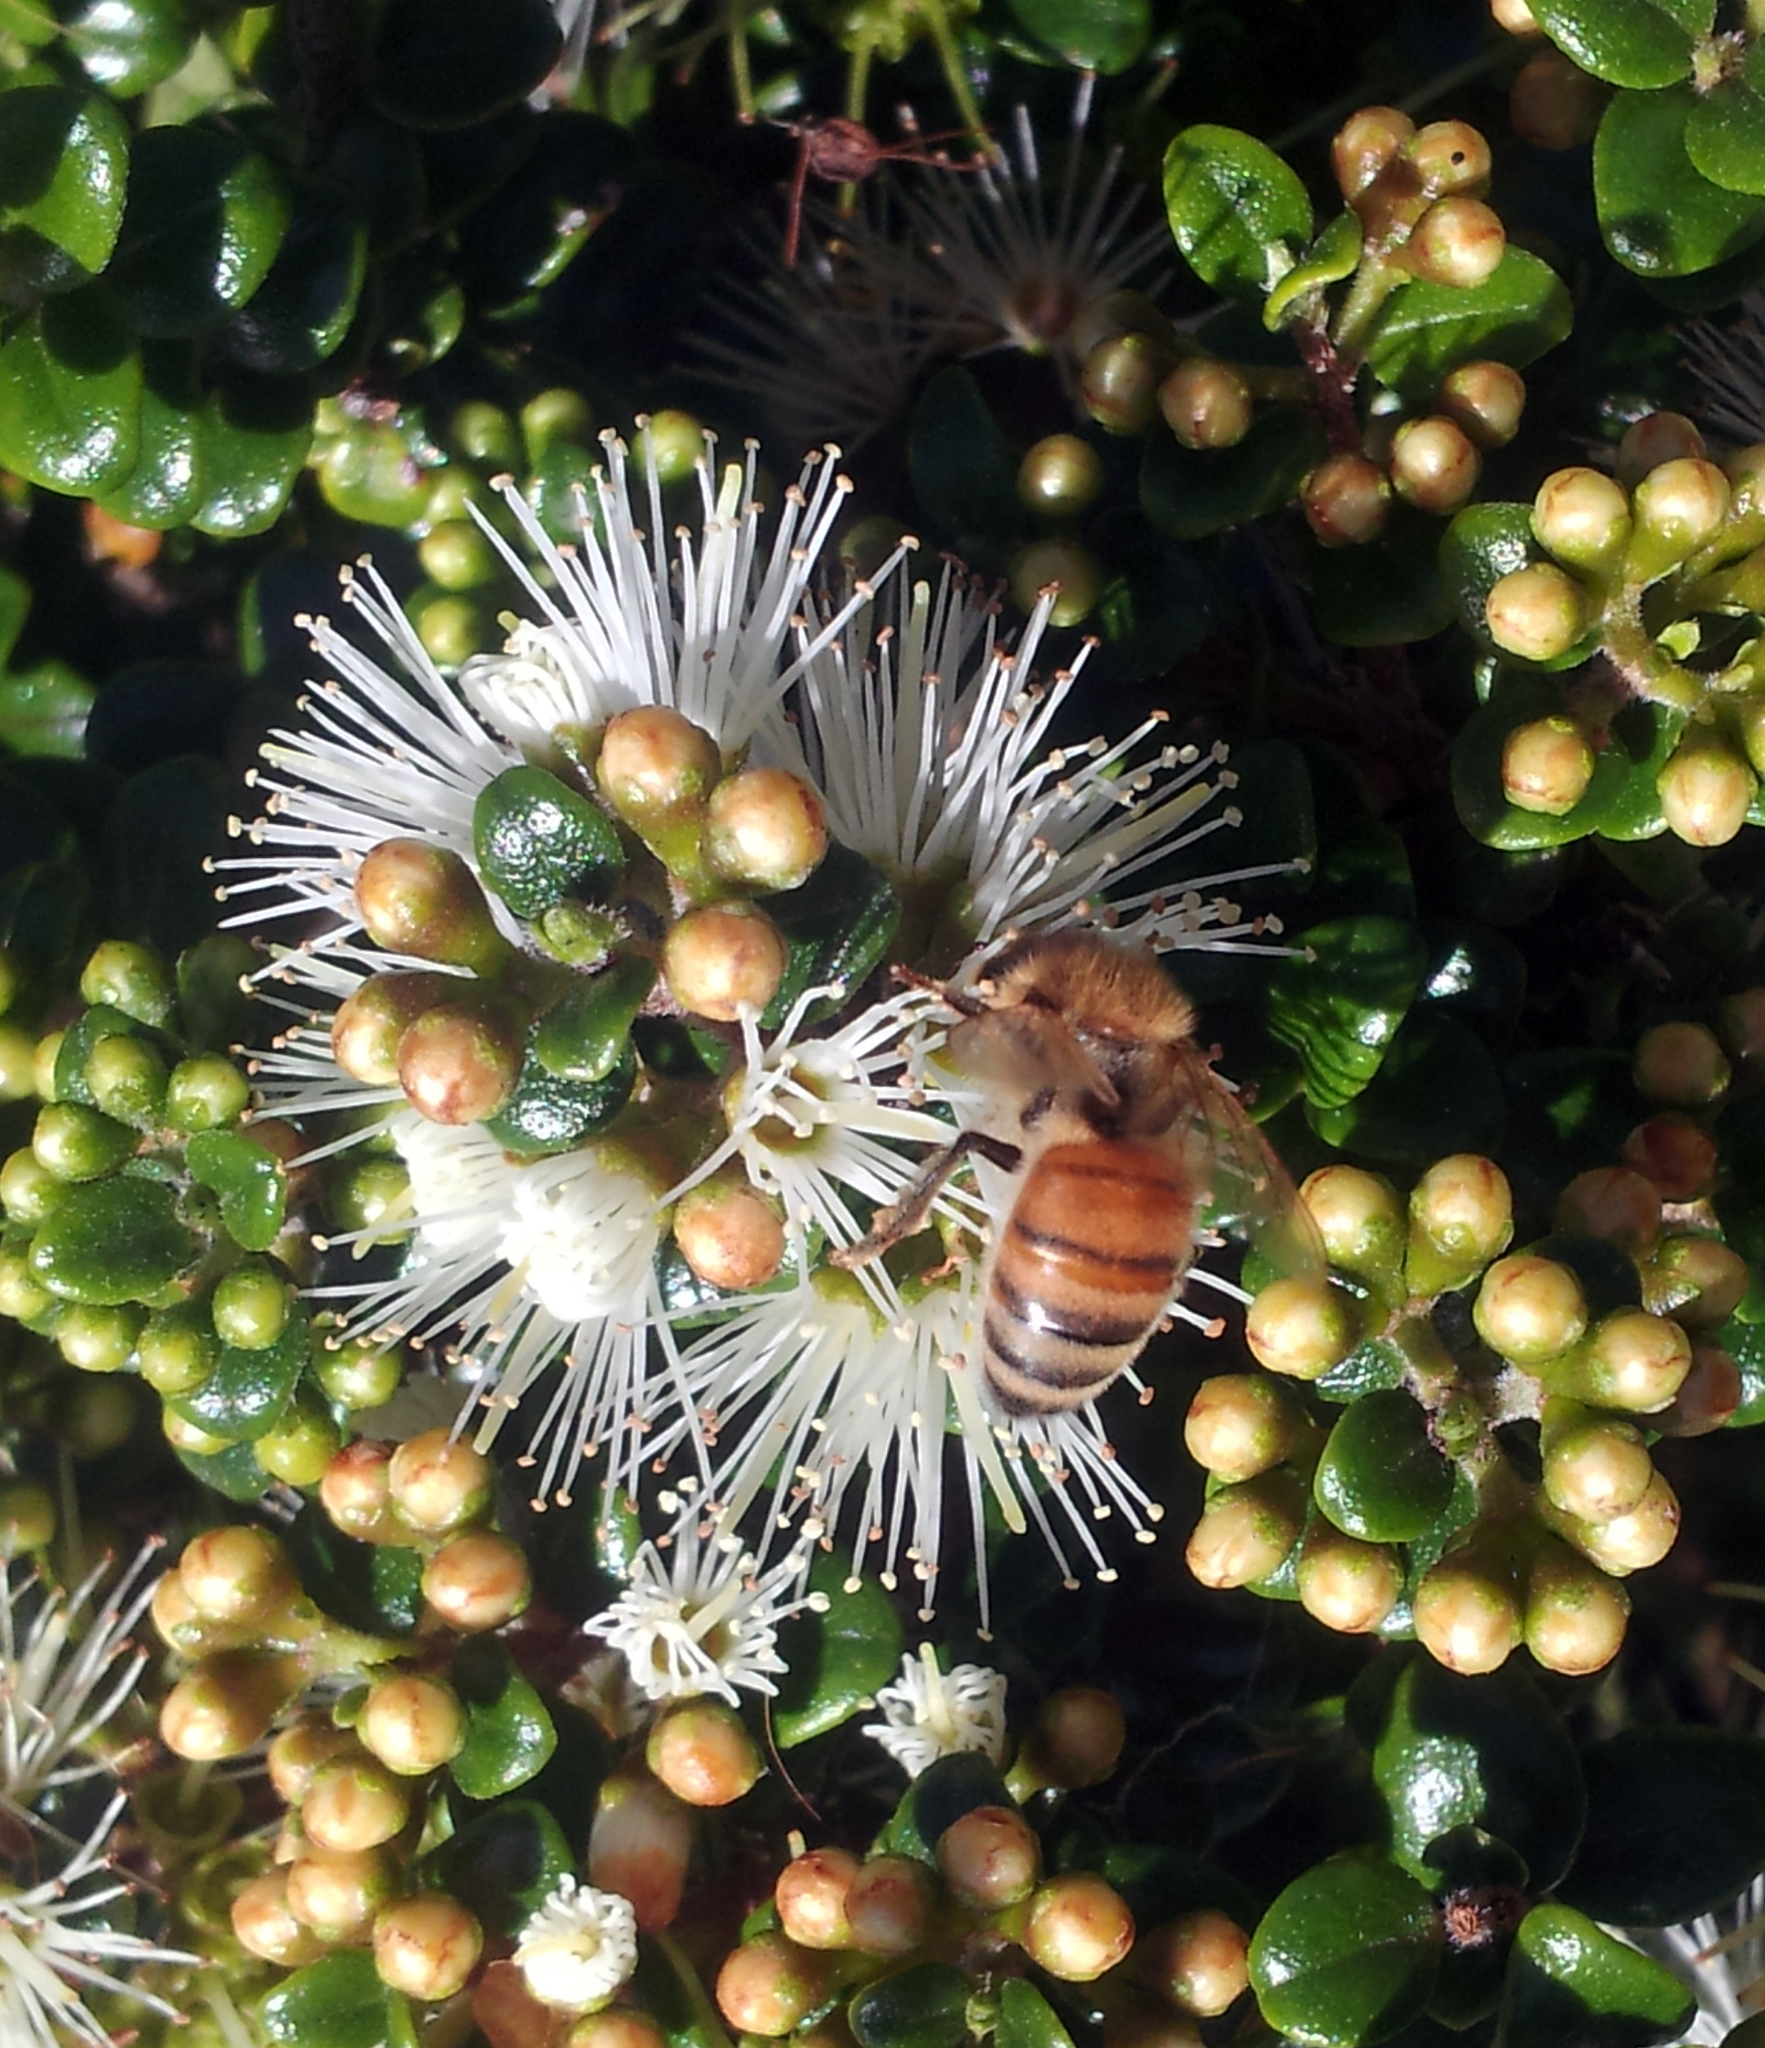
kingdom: Animalia
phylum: Arthropoda
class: Insecta
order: Hymenoptera
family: Apidae
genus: Apis
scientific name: Apis mellifera
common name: Honey bee
